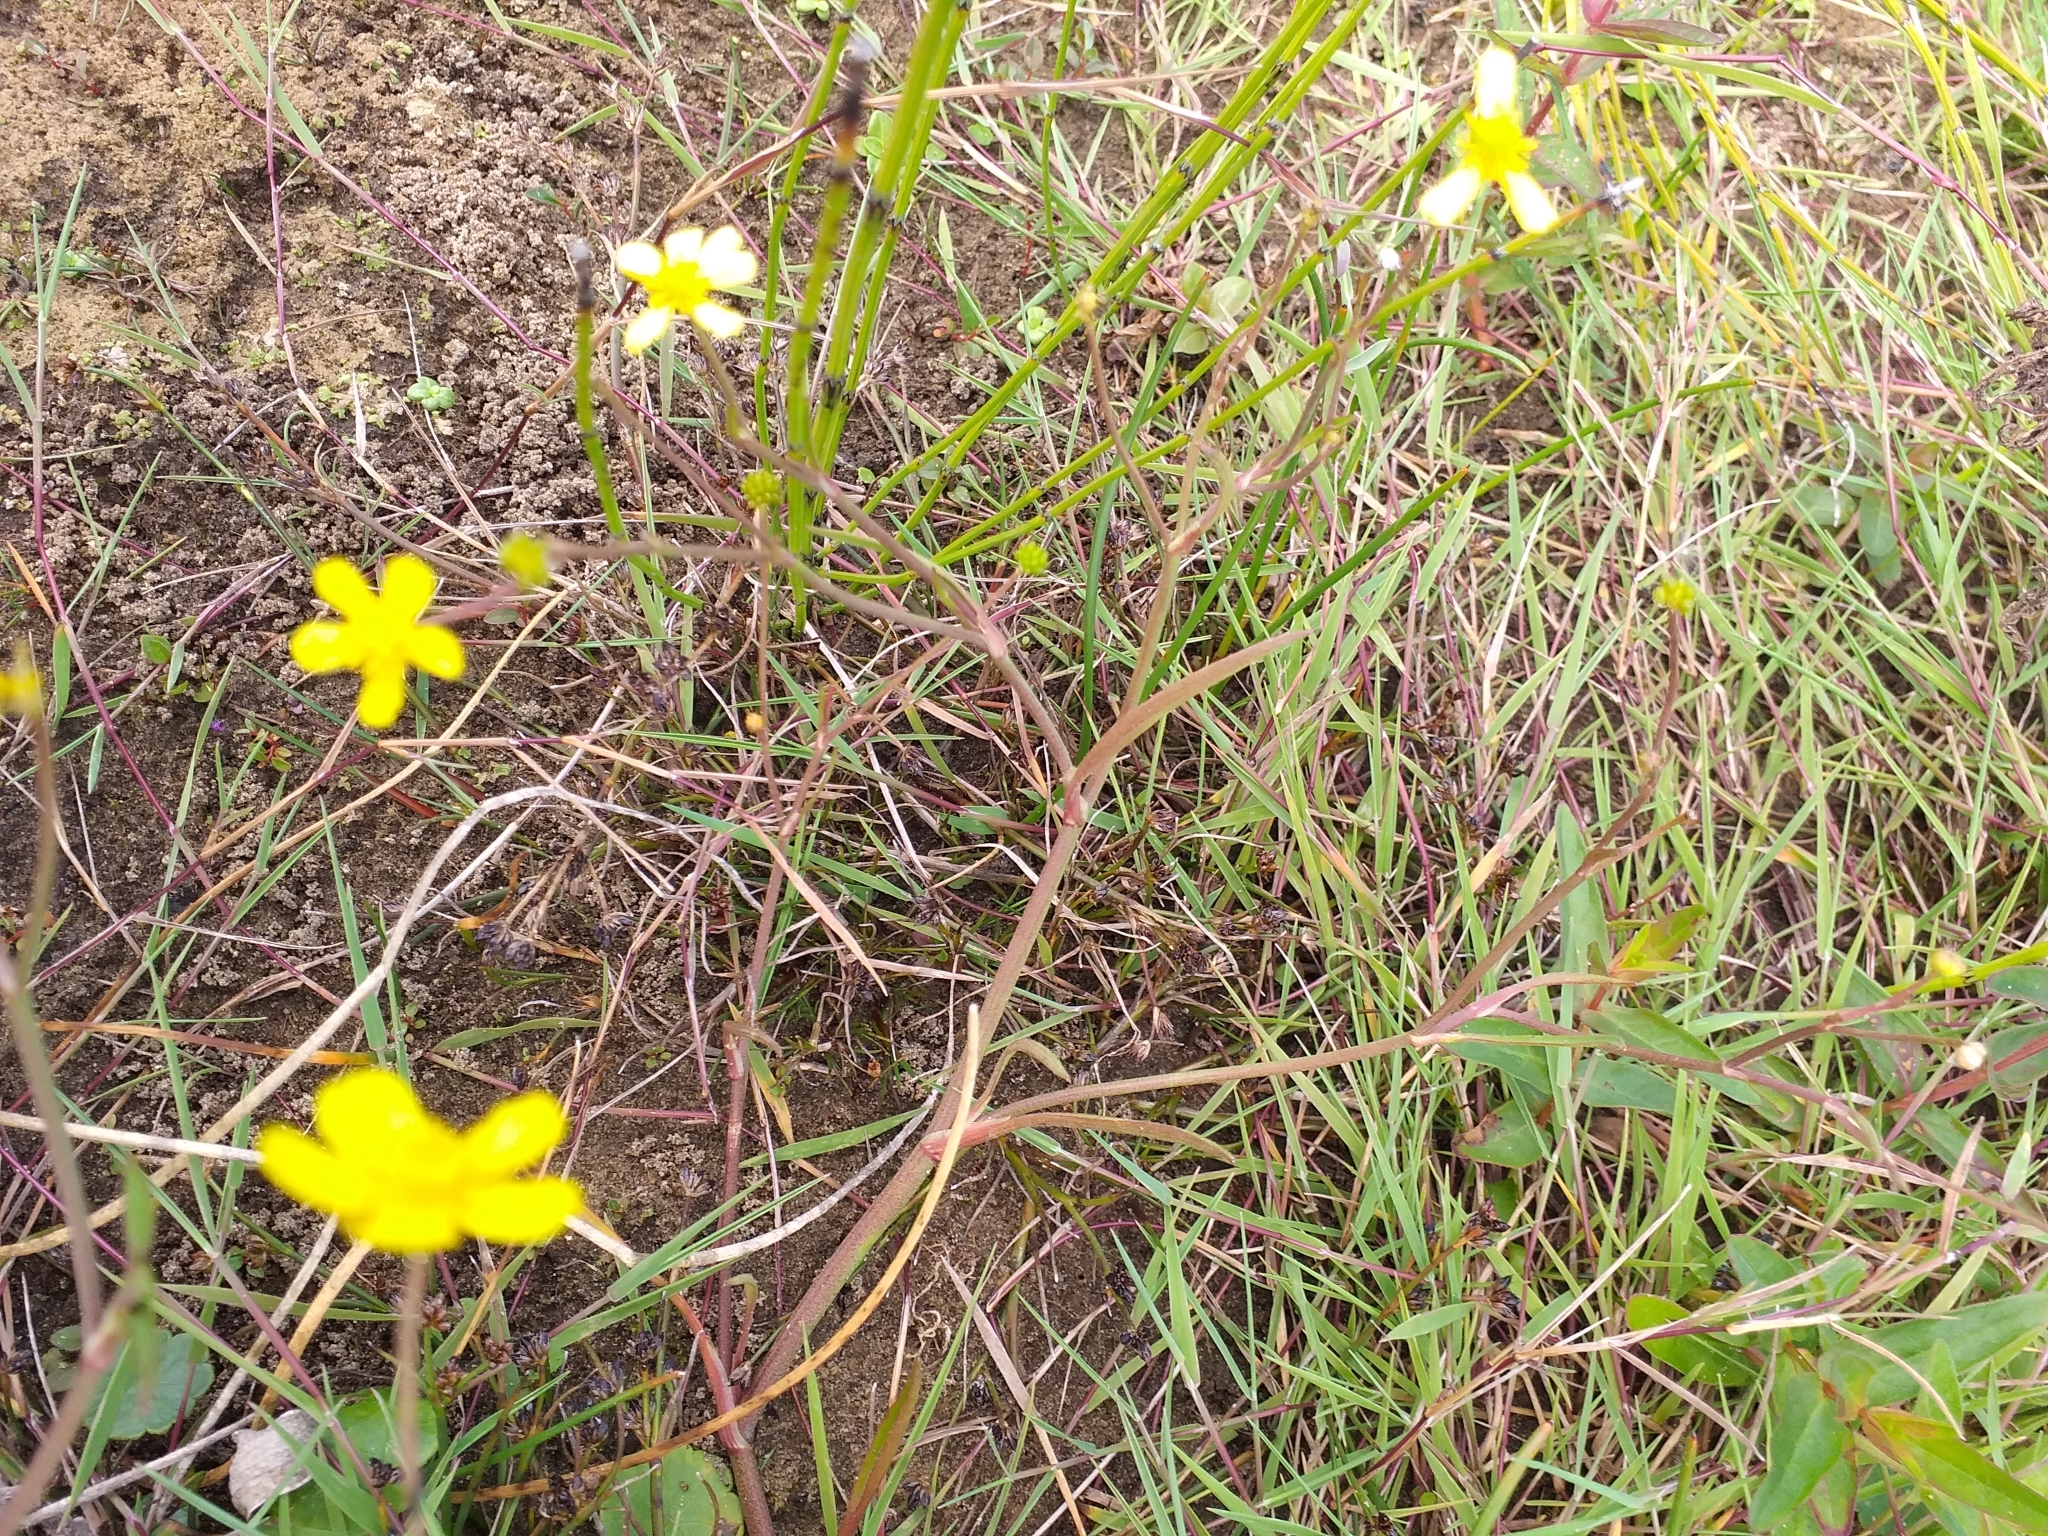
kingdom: Plantae
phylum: Tracheophyta
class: Magnoliopsida
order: Ranunculales
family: Ranunculaceae
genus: Ranunculus
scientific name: Ranunculus flammula
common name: Lesser spearwort
